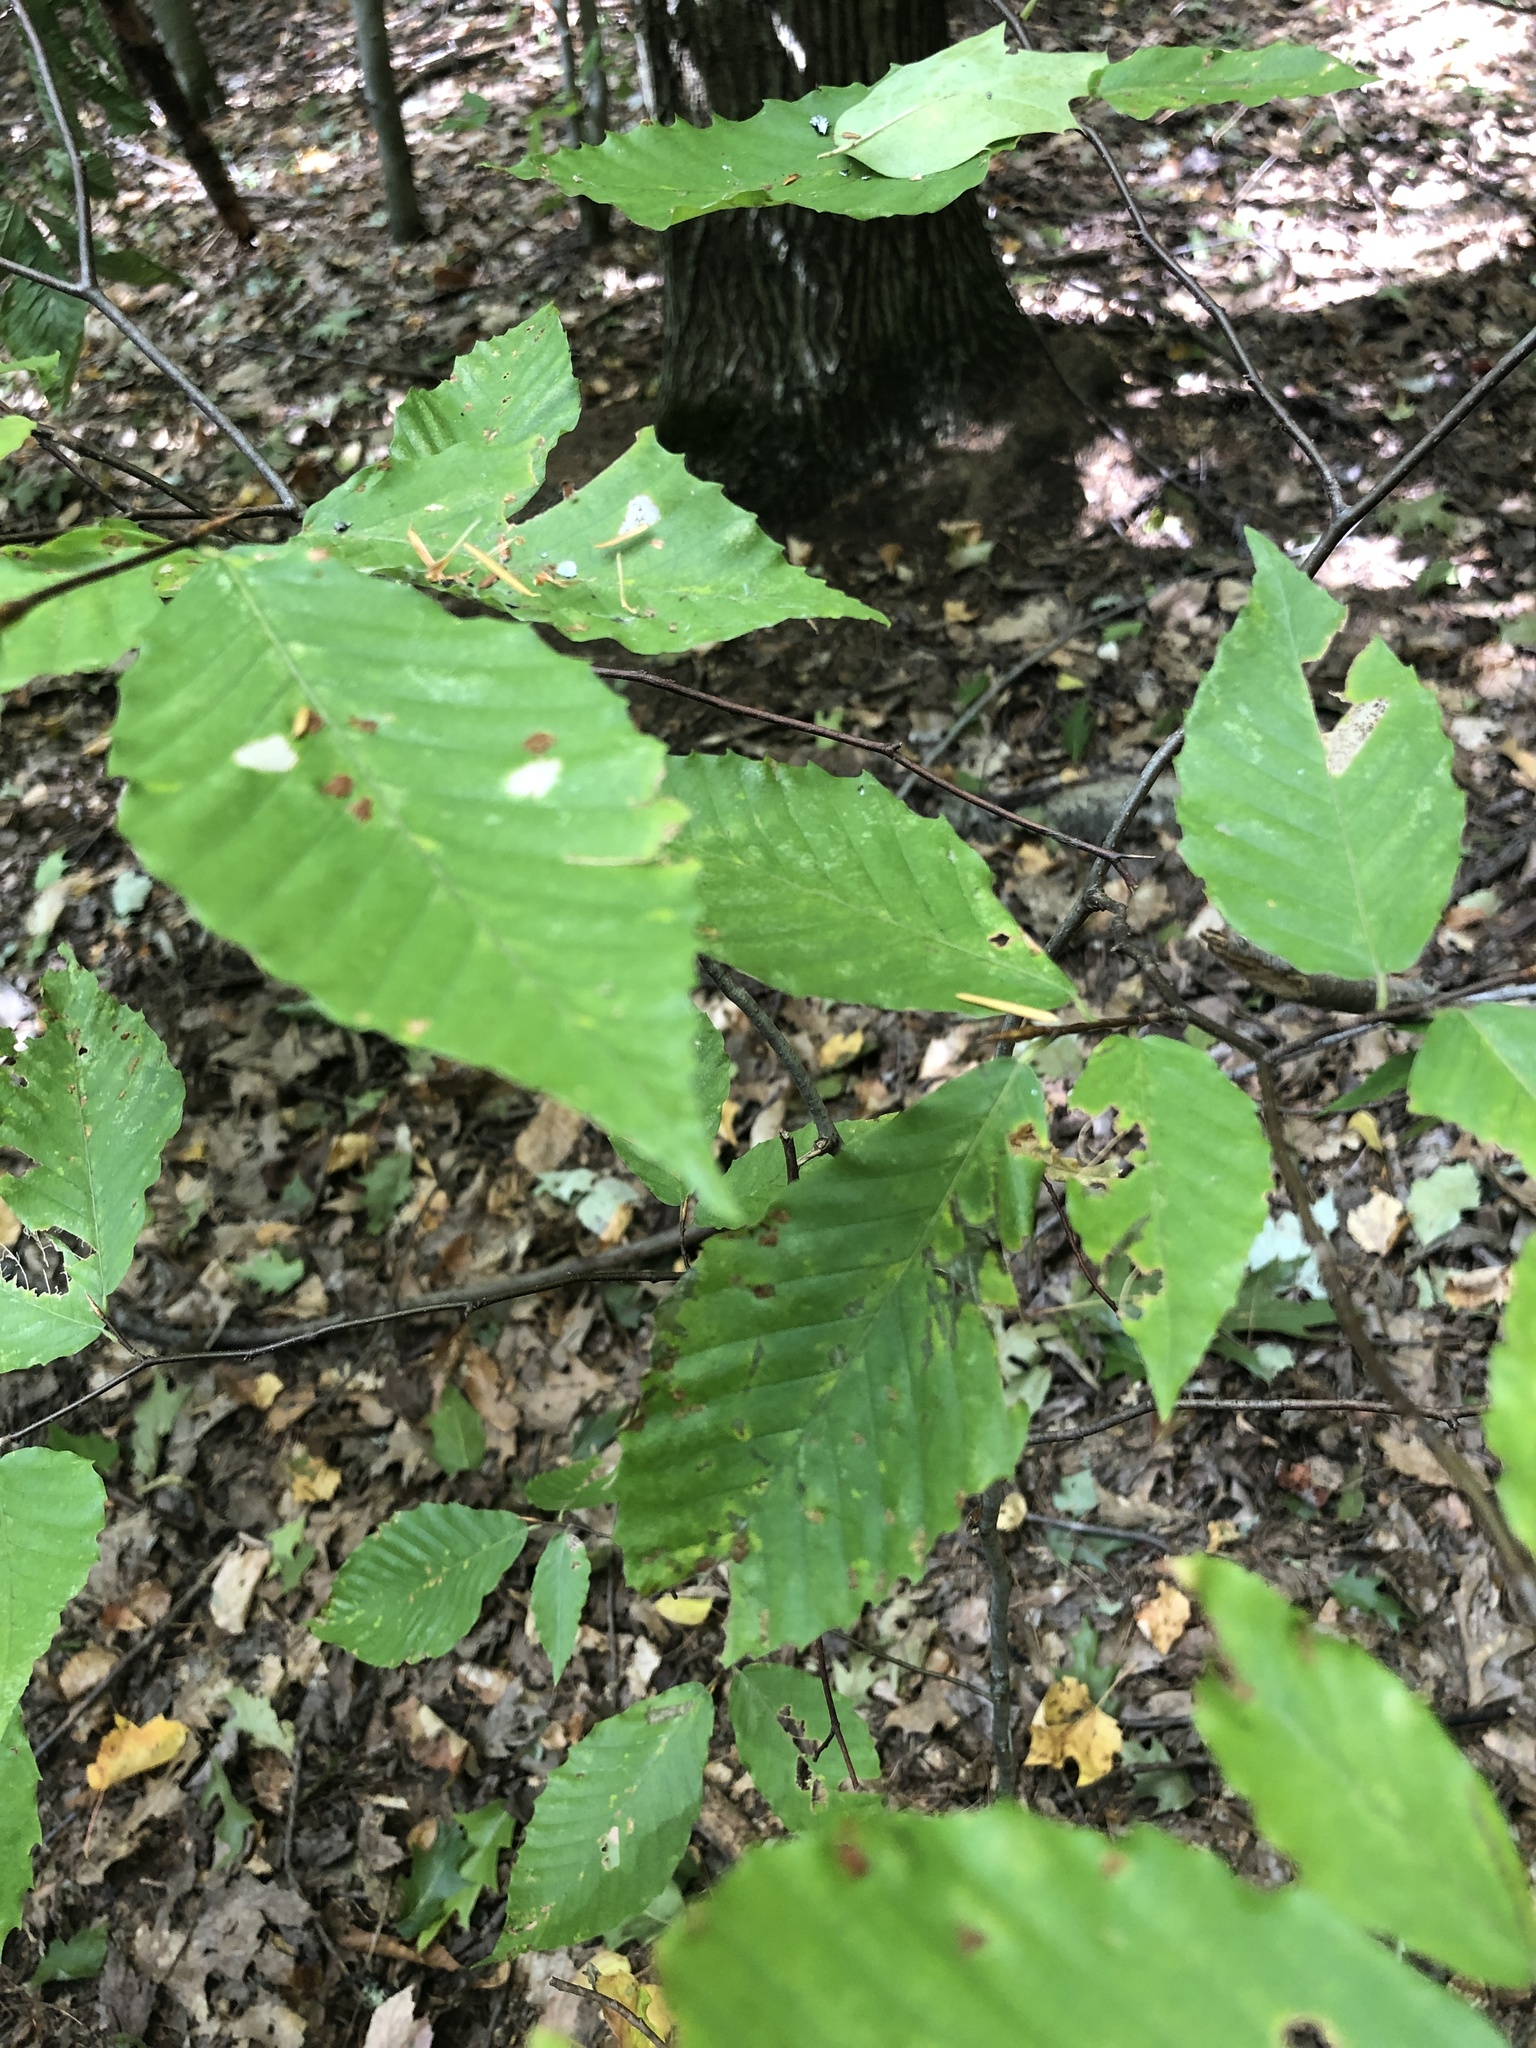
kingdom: Plantae
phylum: Tracheophyta
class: Magnoliopsida
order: Fagales
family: Fagaceae
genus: Fagus
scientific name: Fagus grandifolia
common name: American beech
